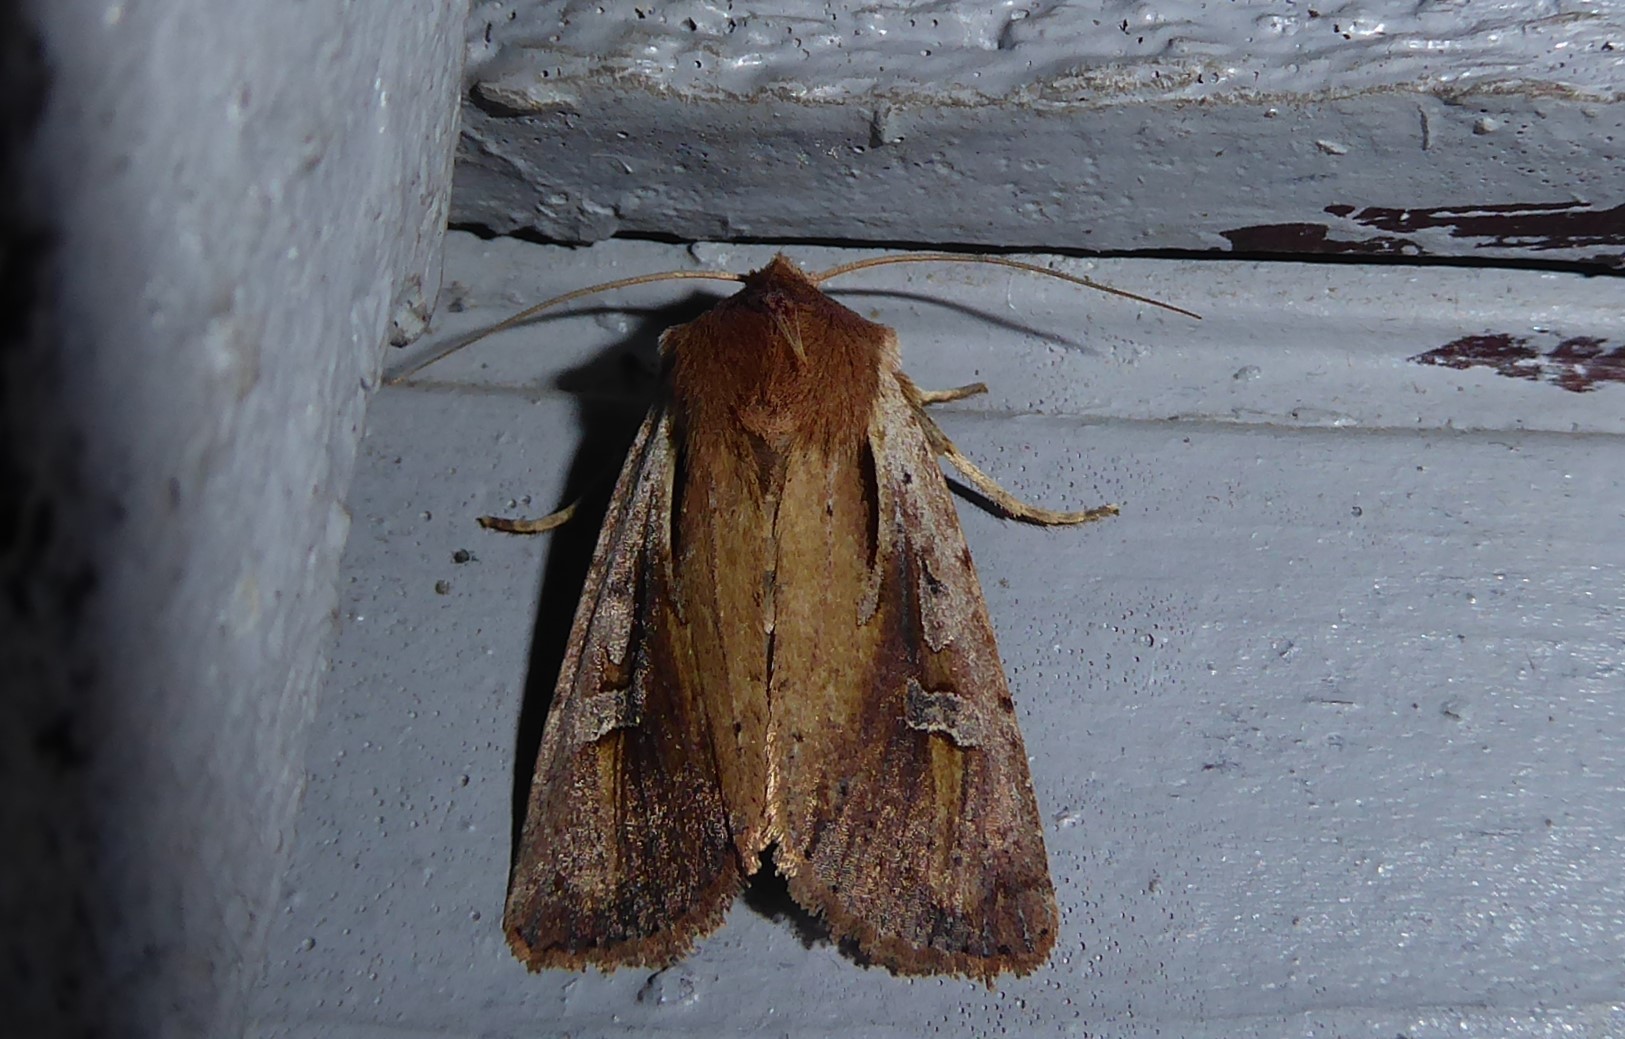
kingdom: Animalia
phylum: Arthropoda
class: Insecta
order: Lepidoptera
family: Noctuidae
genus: Ichneutica
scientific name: Ichneutica atristriga
